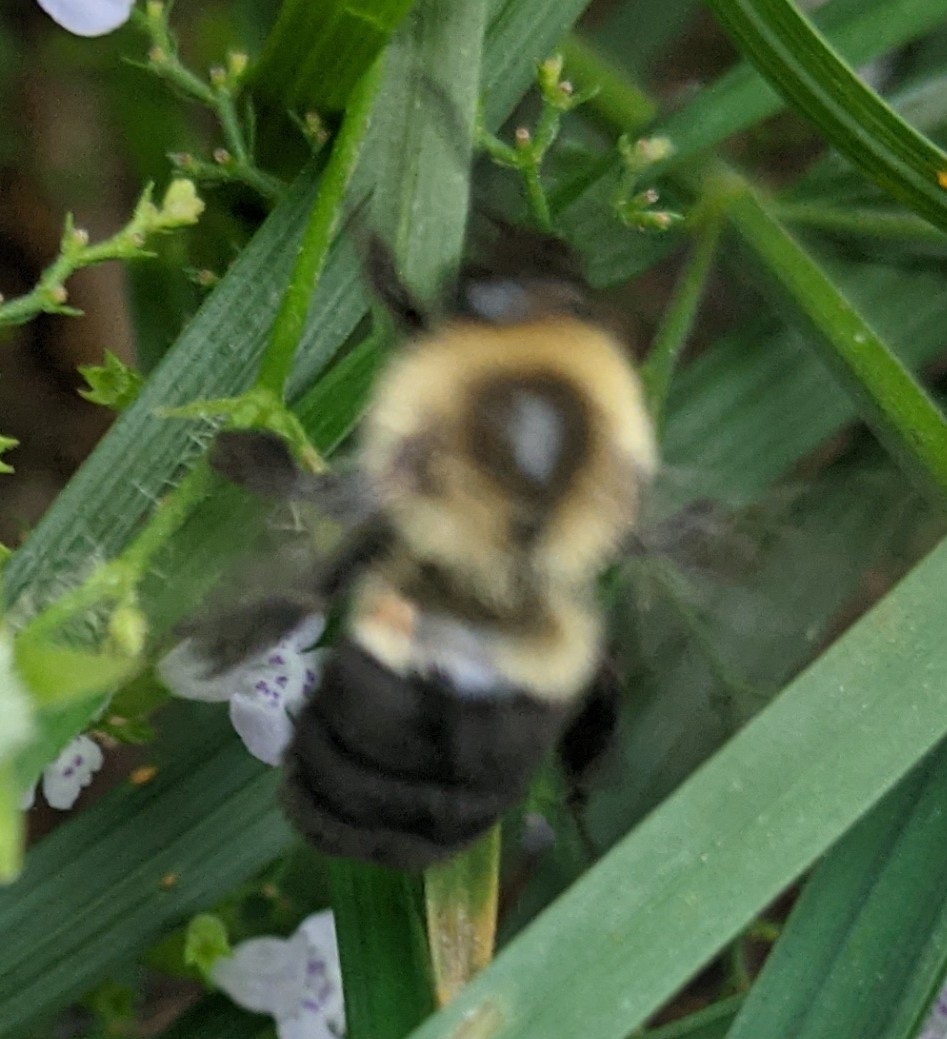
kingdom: Animalia
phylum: Arthropoda
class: Insecta
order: Hymenoptera
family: Apidae
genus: Bombus
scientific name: Bombus impatiens
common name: Common eastern bumble bee
